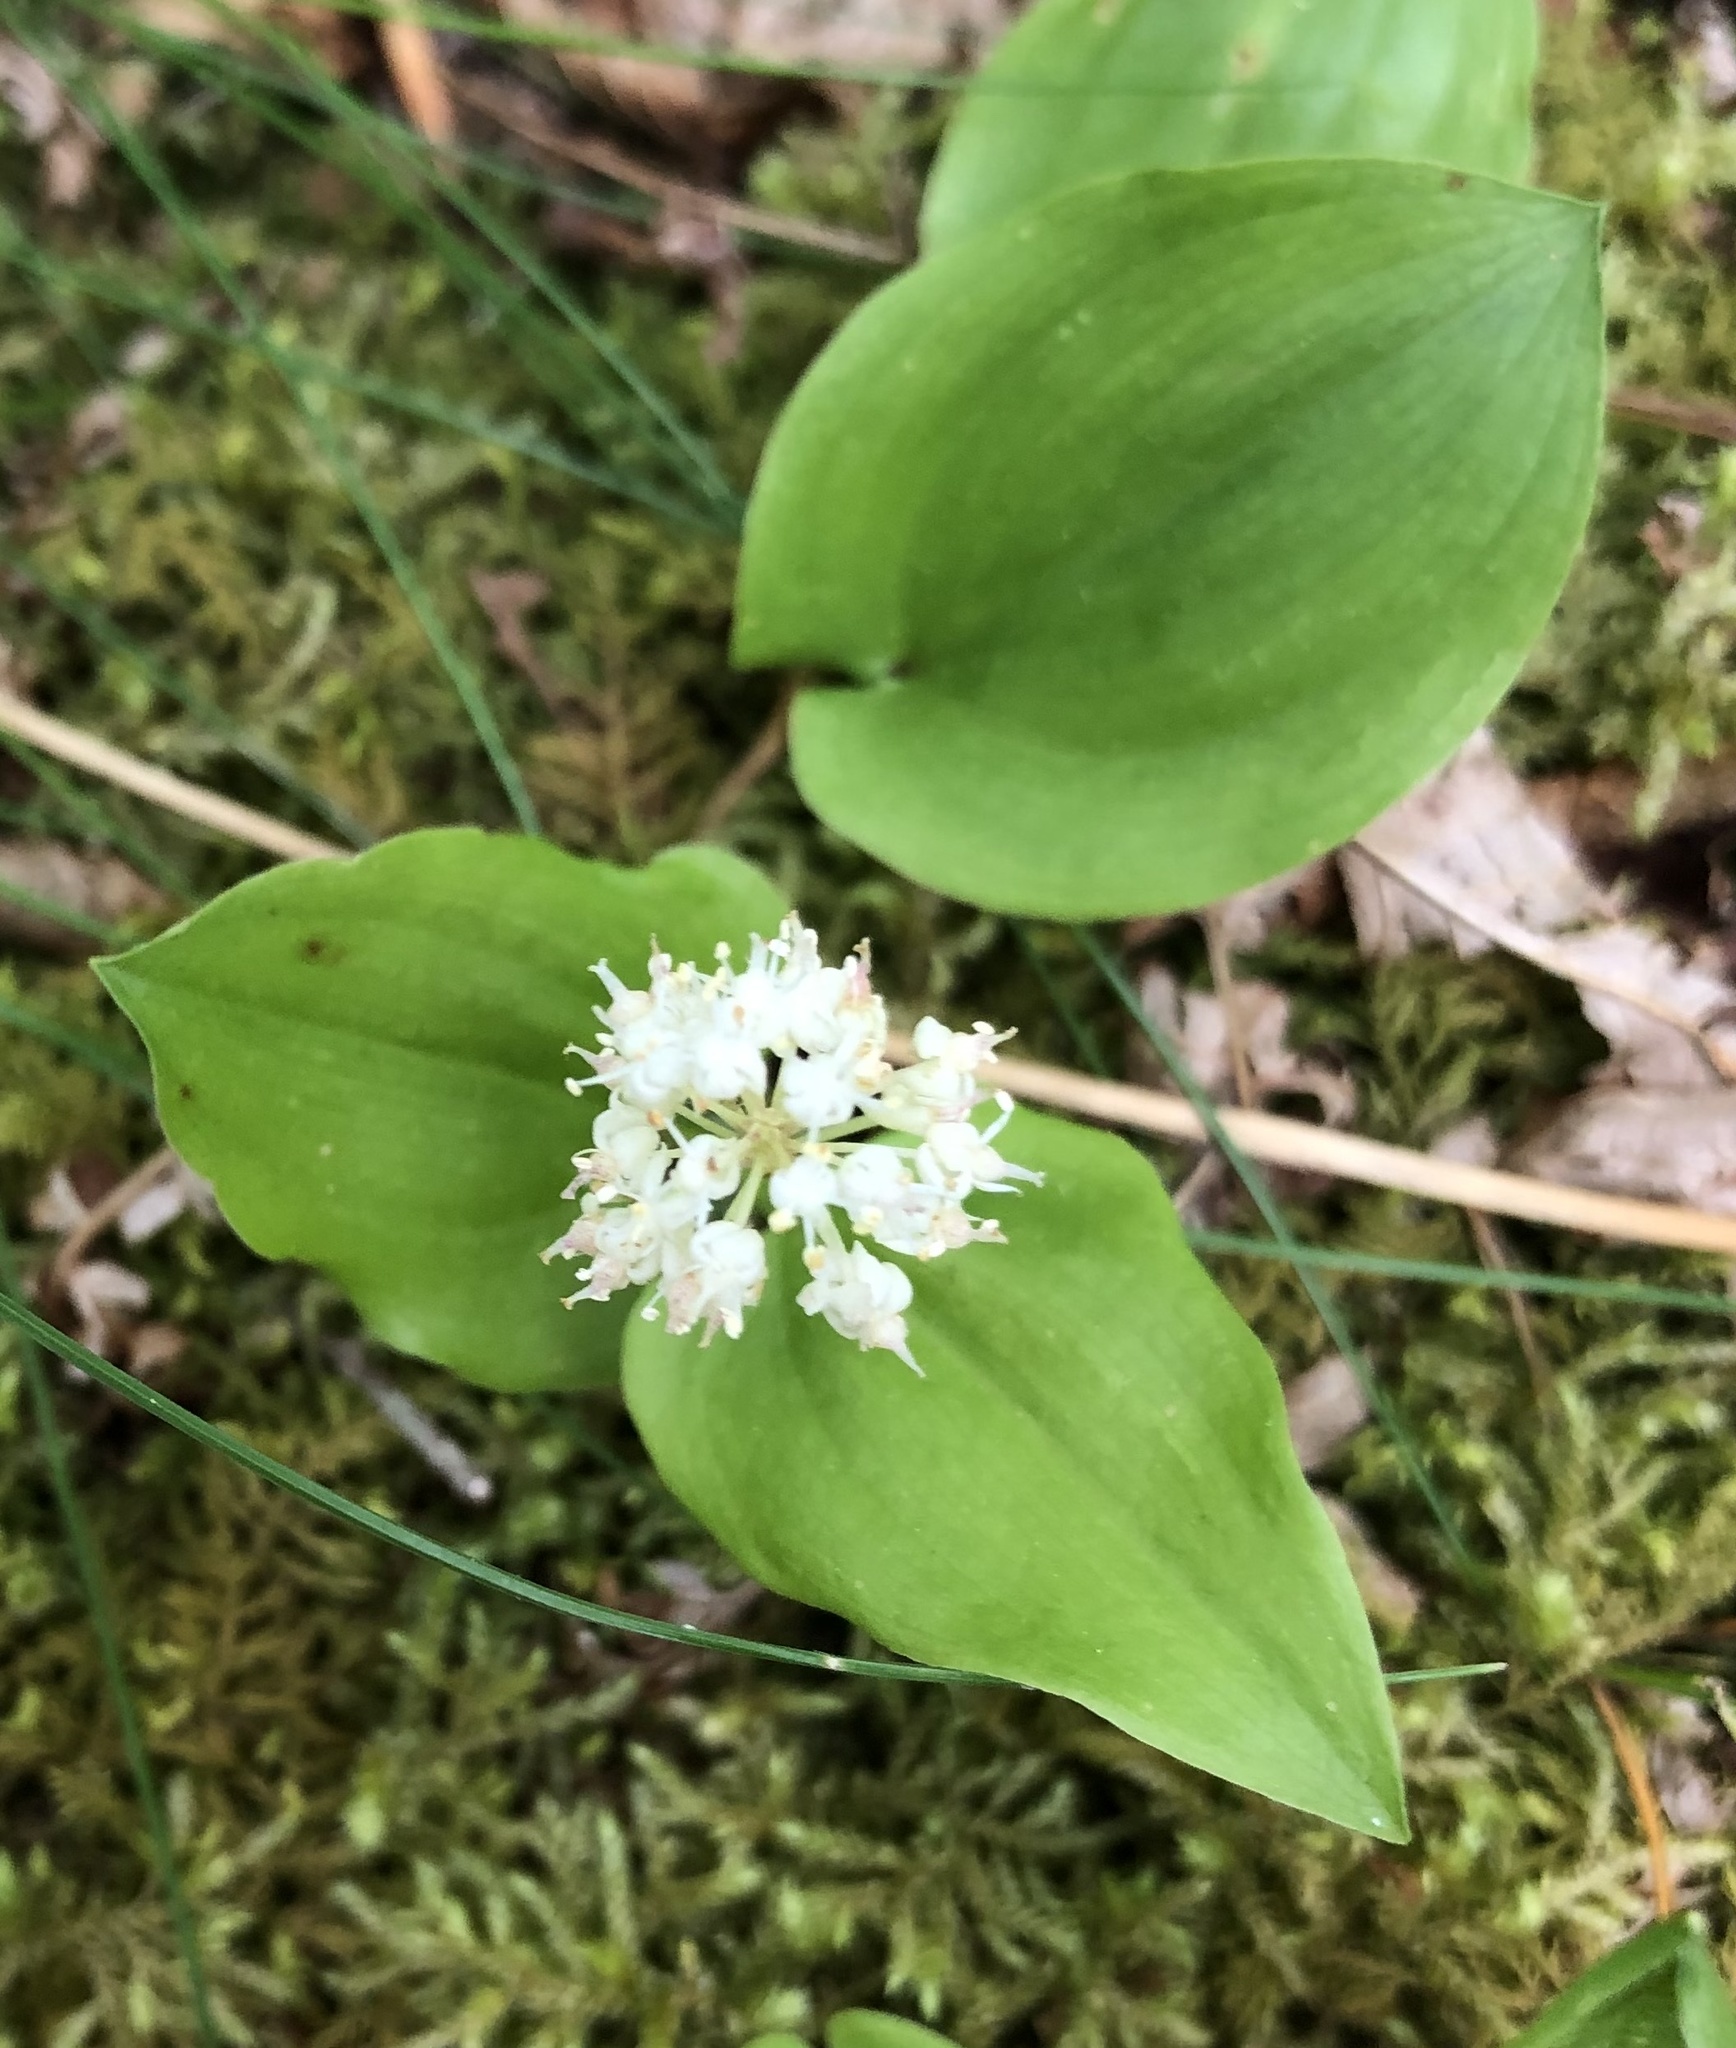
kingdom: Plantae
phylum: Tracheophyta
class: Liliopsida
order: Asparagales
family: Asparagaceae
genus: Maianthemum
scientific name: Maianthemum canadense
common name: False lily-of-the-valley
